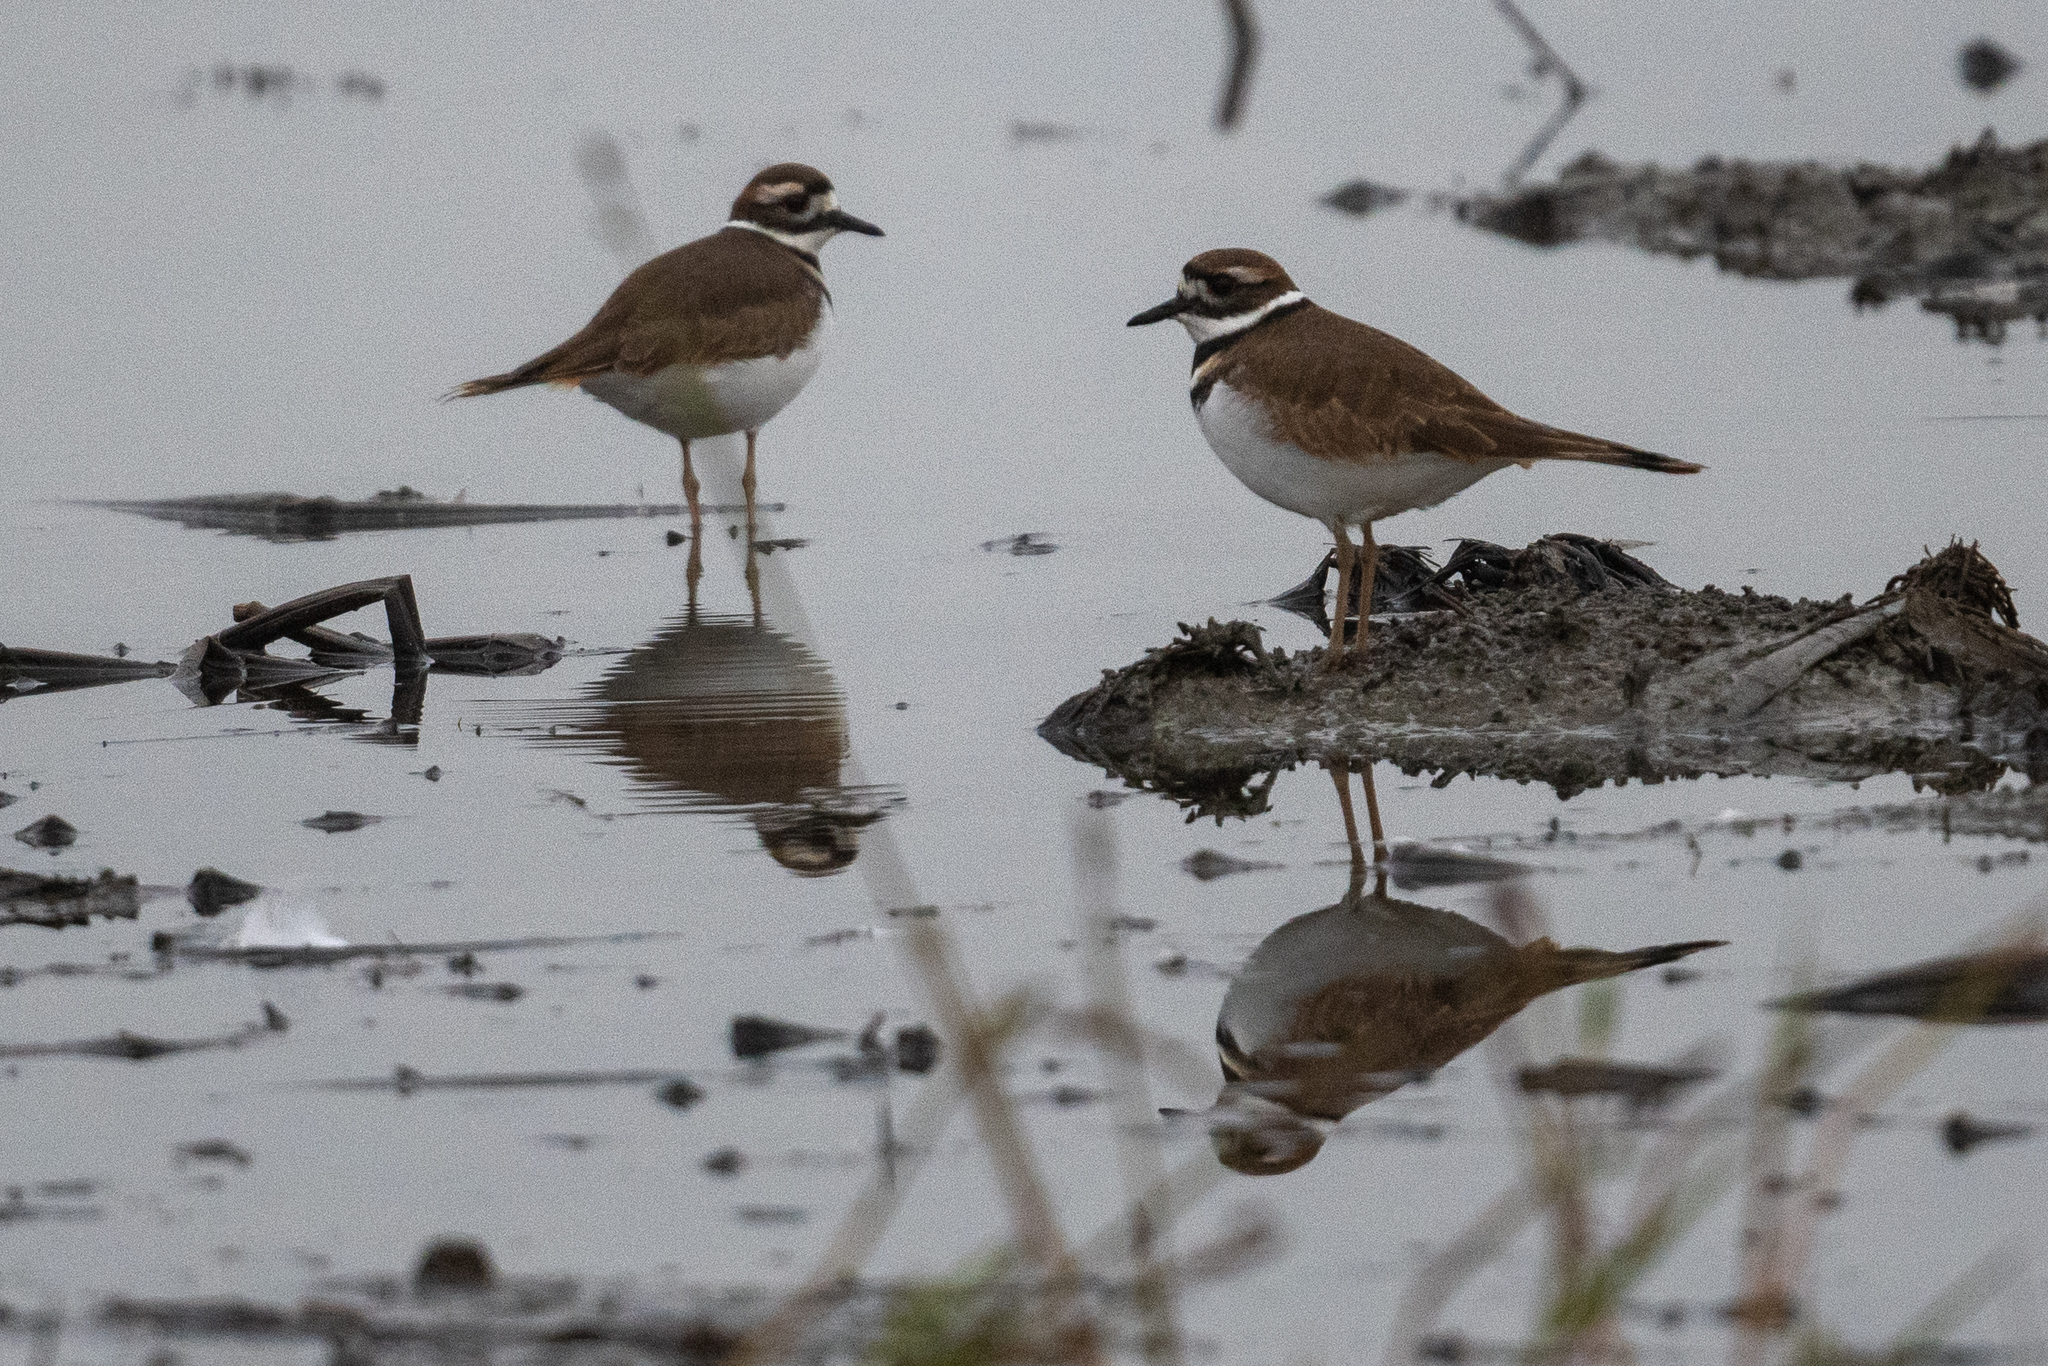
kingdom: Animalia
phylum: Chordata
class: Aves
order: Charadriiformes
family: Charadriidae
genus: Charadrius
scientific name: Charadrius vociferus
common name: Killdeer
